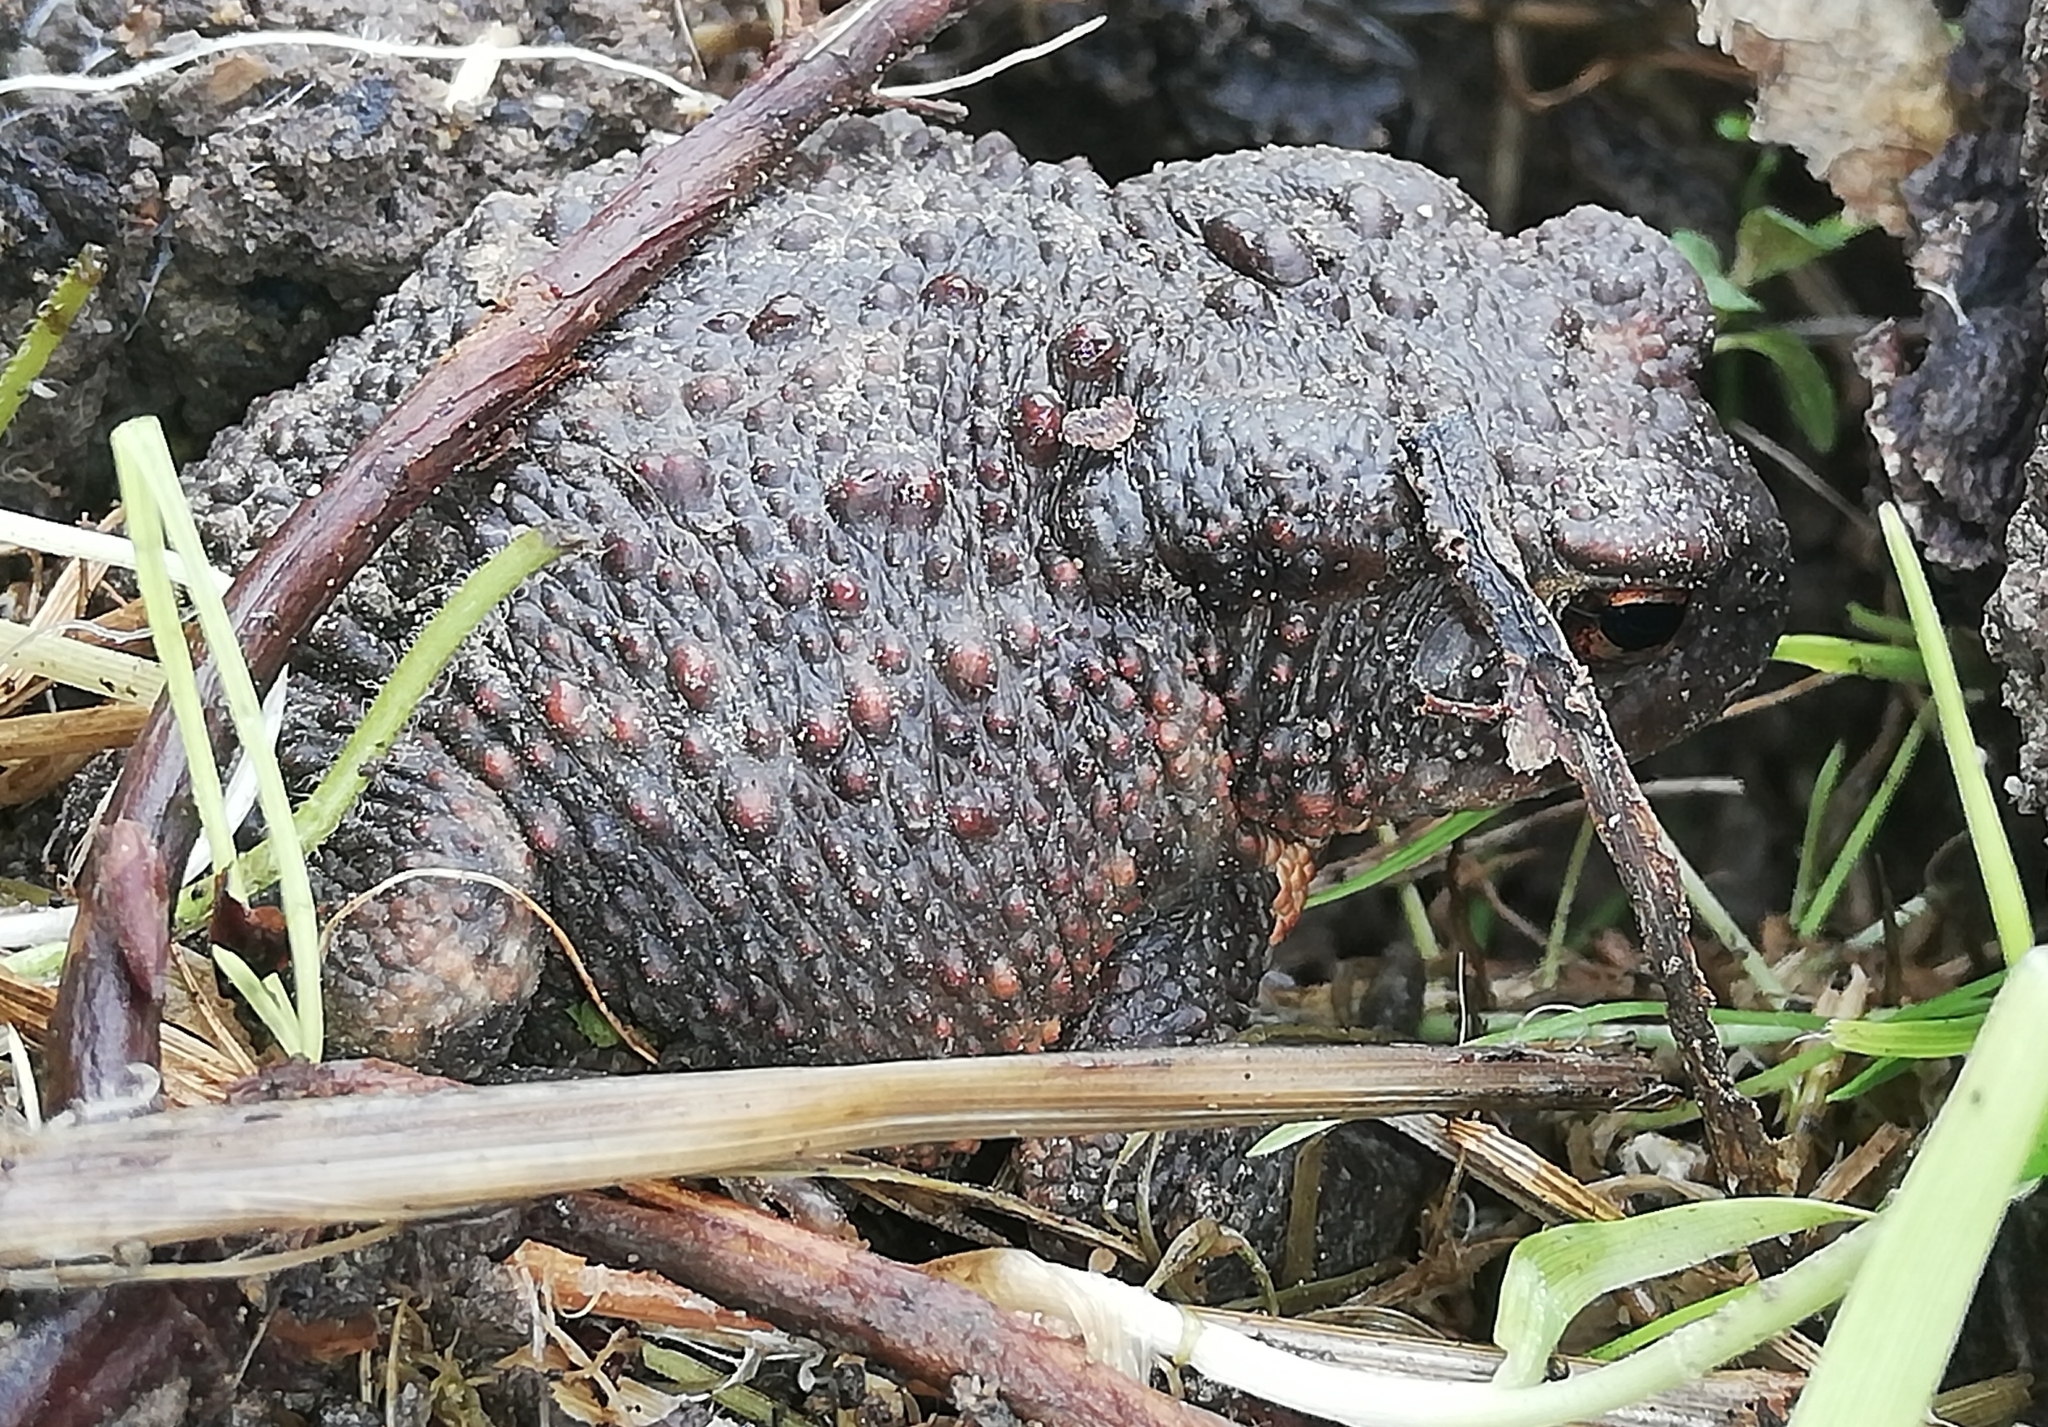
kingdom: Animalia
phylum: Chordata
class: Amphibia
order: Anura
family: Bufonidae
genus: Bufo
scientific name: Bufo bufo
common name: Common toad
